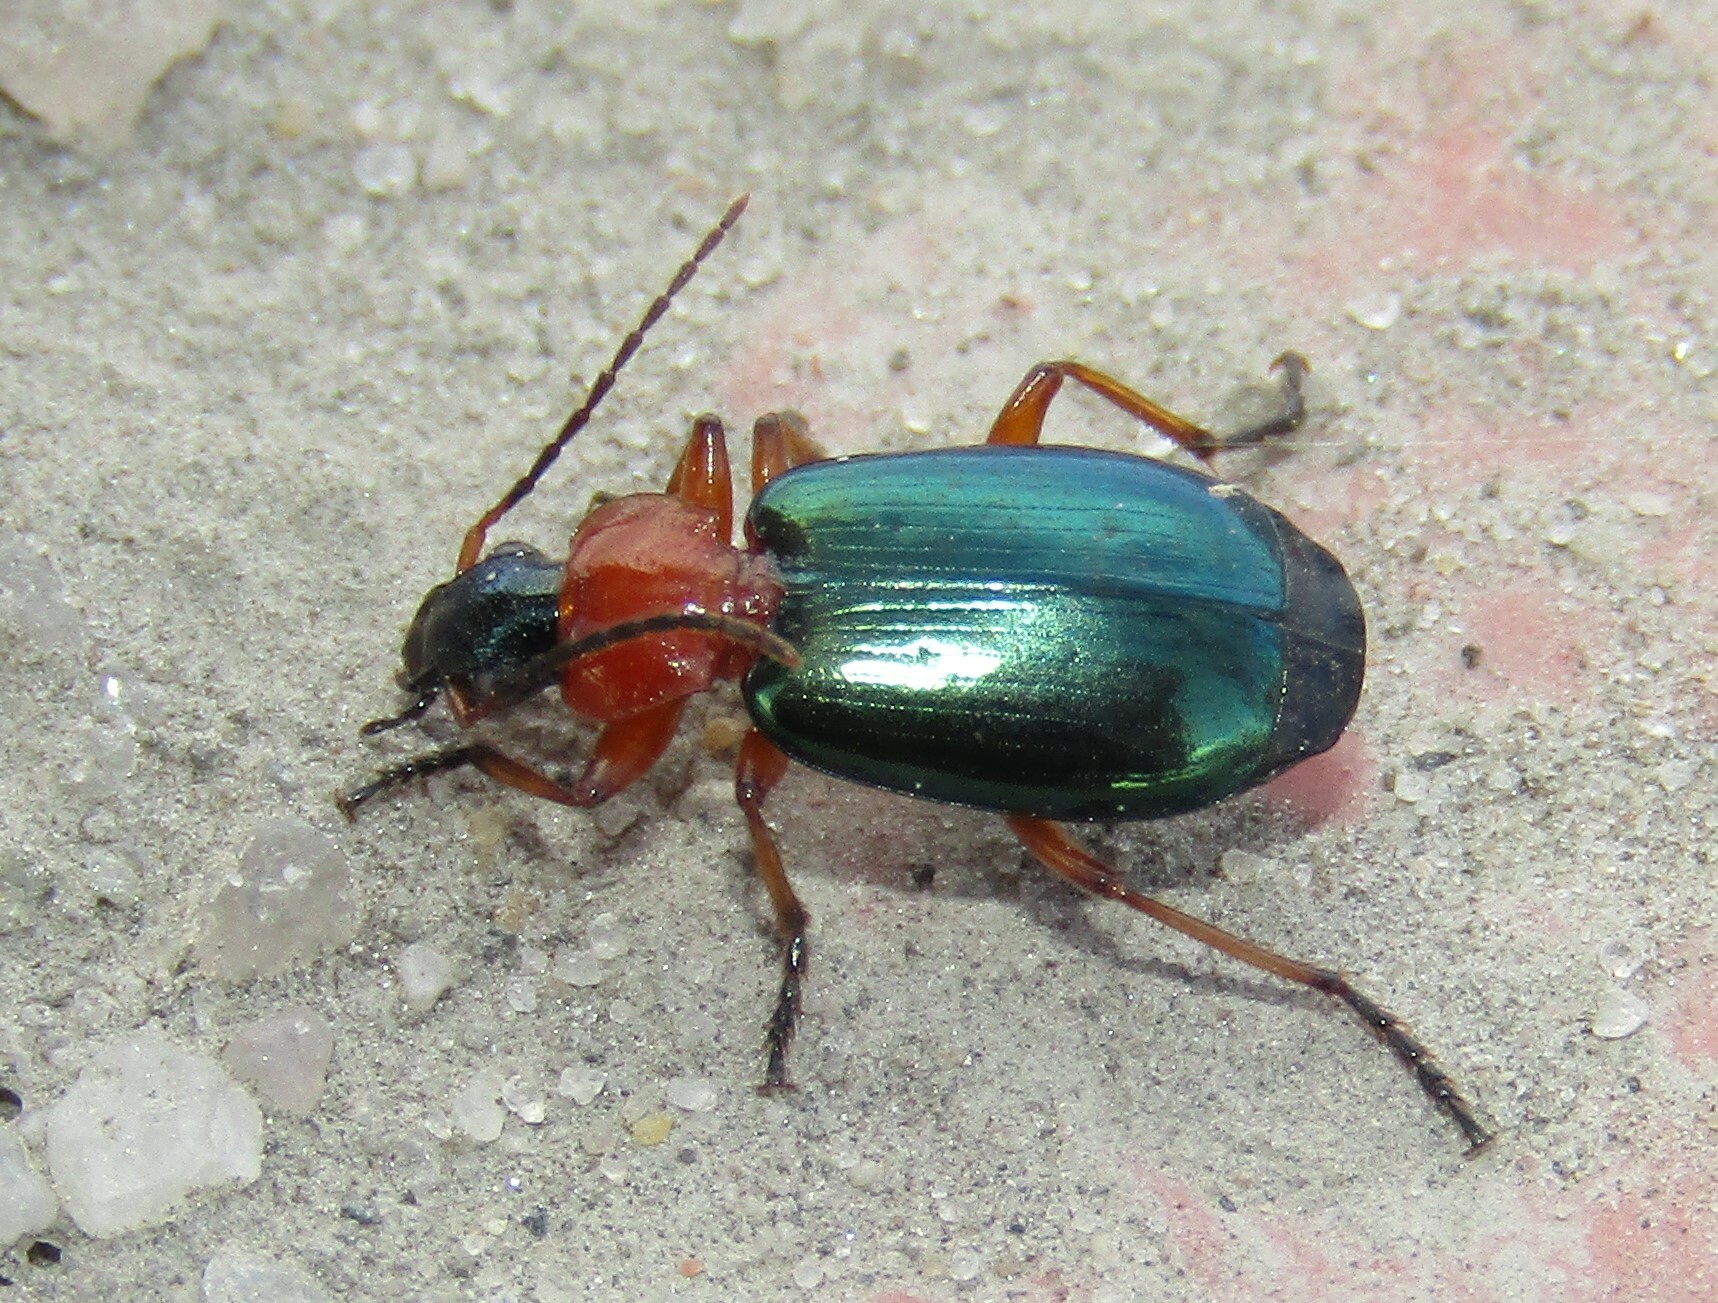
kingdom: Animalia
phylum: Arthropoda
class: Insecta
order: Coleoptera
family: Carabidae
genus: Lebia
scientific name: Lebia chlorocephala
